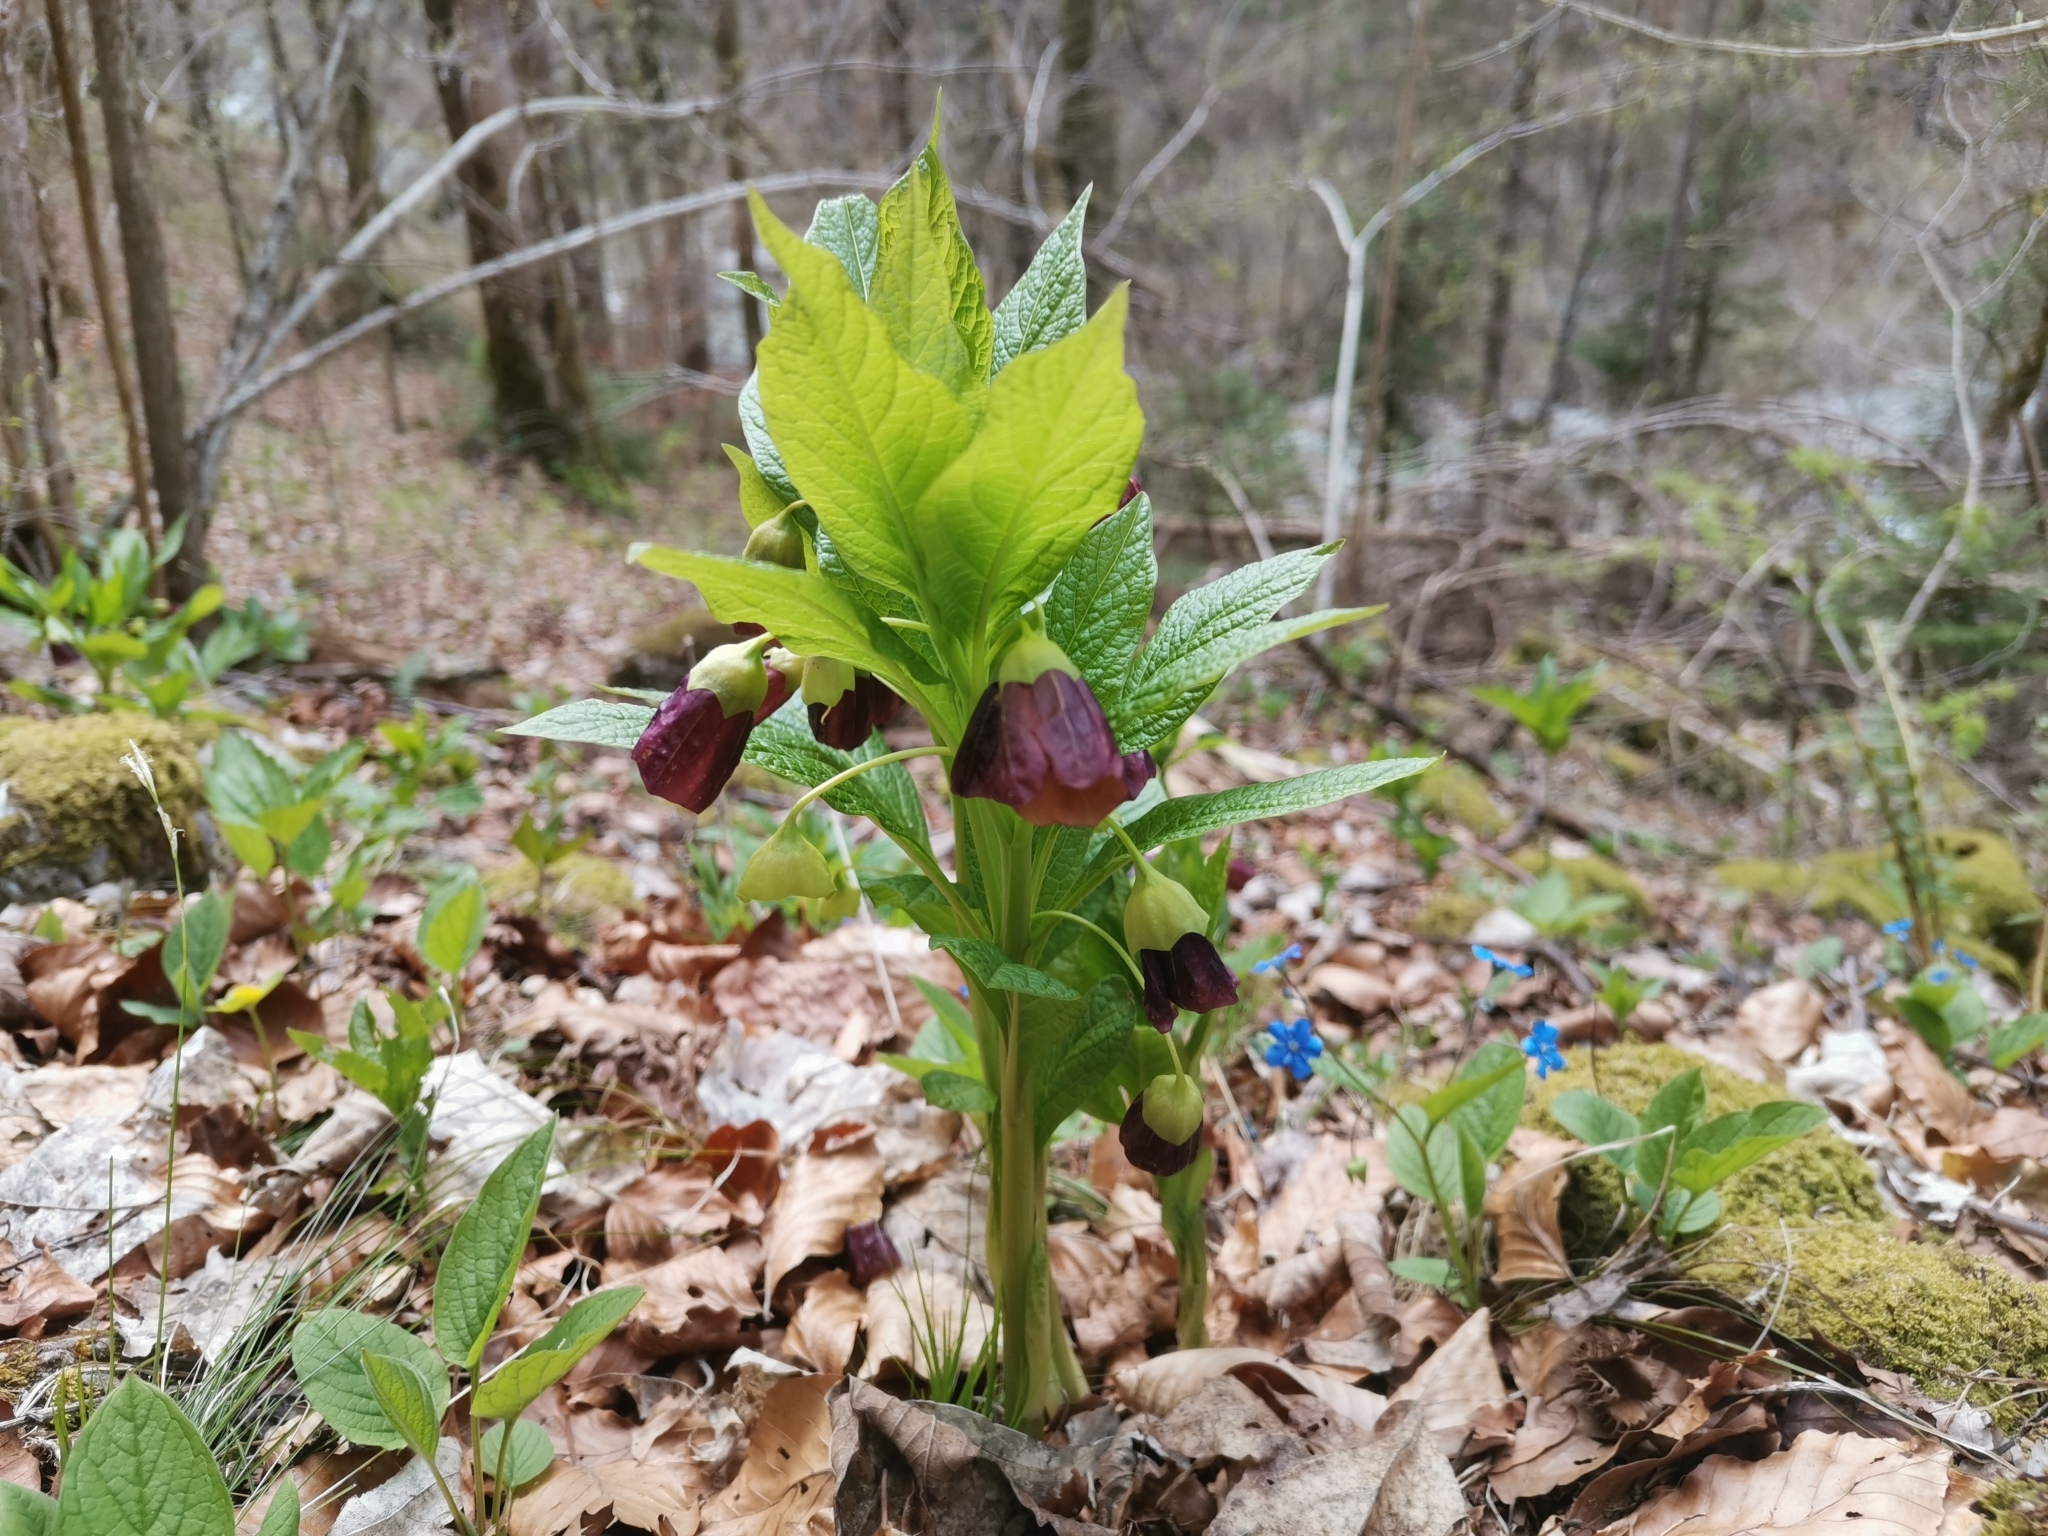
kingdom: Plantae
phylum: Tracheophyta
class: Magnoliopsida
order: Solanales
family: Solanaceae
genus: Scopolia
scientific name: Scopolia carniolica
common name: Scopolia
